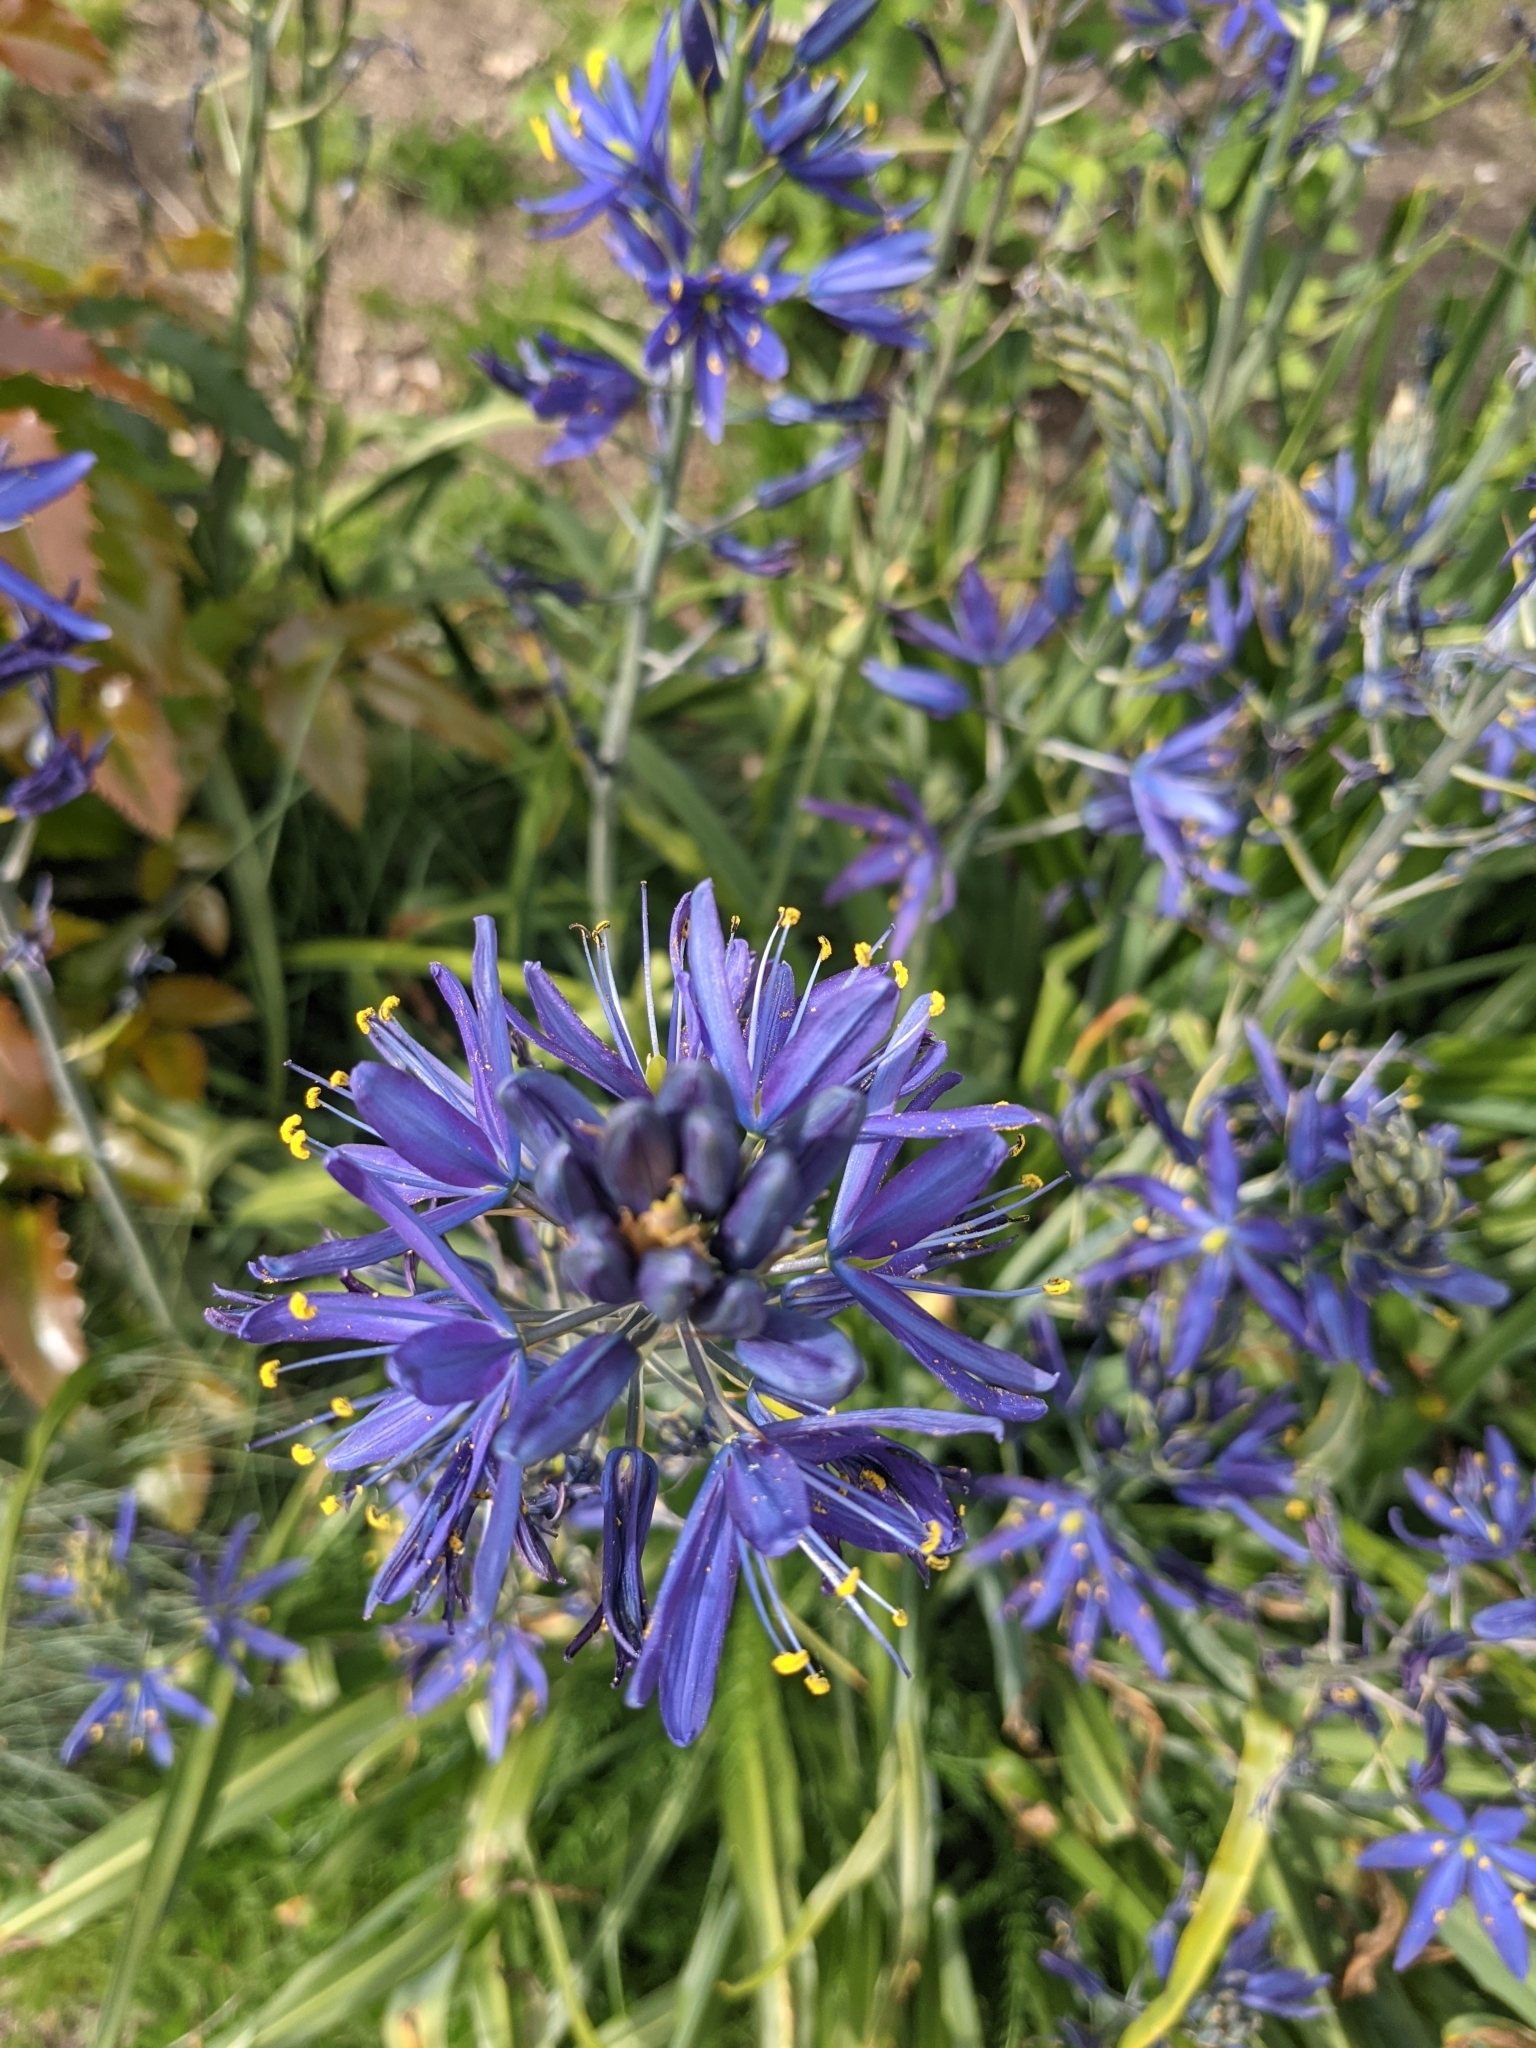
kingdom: Plantae
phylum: Tracheophyta
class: Liliopsida
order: Asparagales
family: Asparagaceae
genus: Camassia
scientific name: Camassia leichtlinii
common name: Leichtlin's camas
